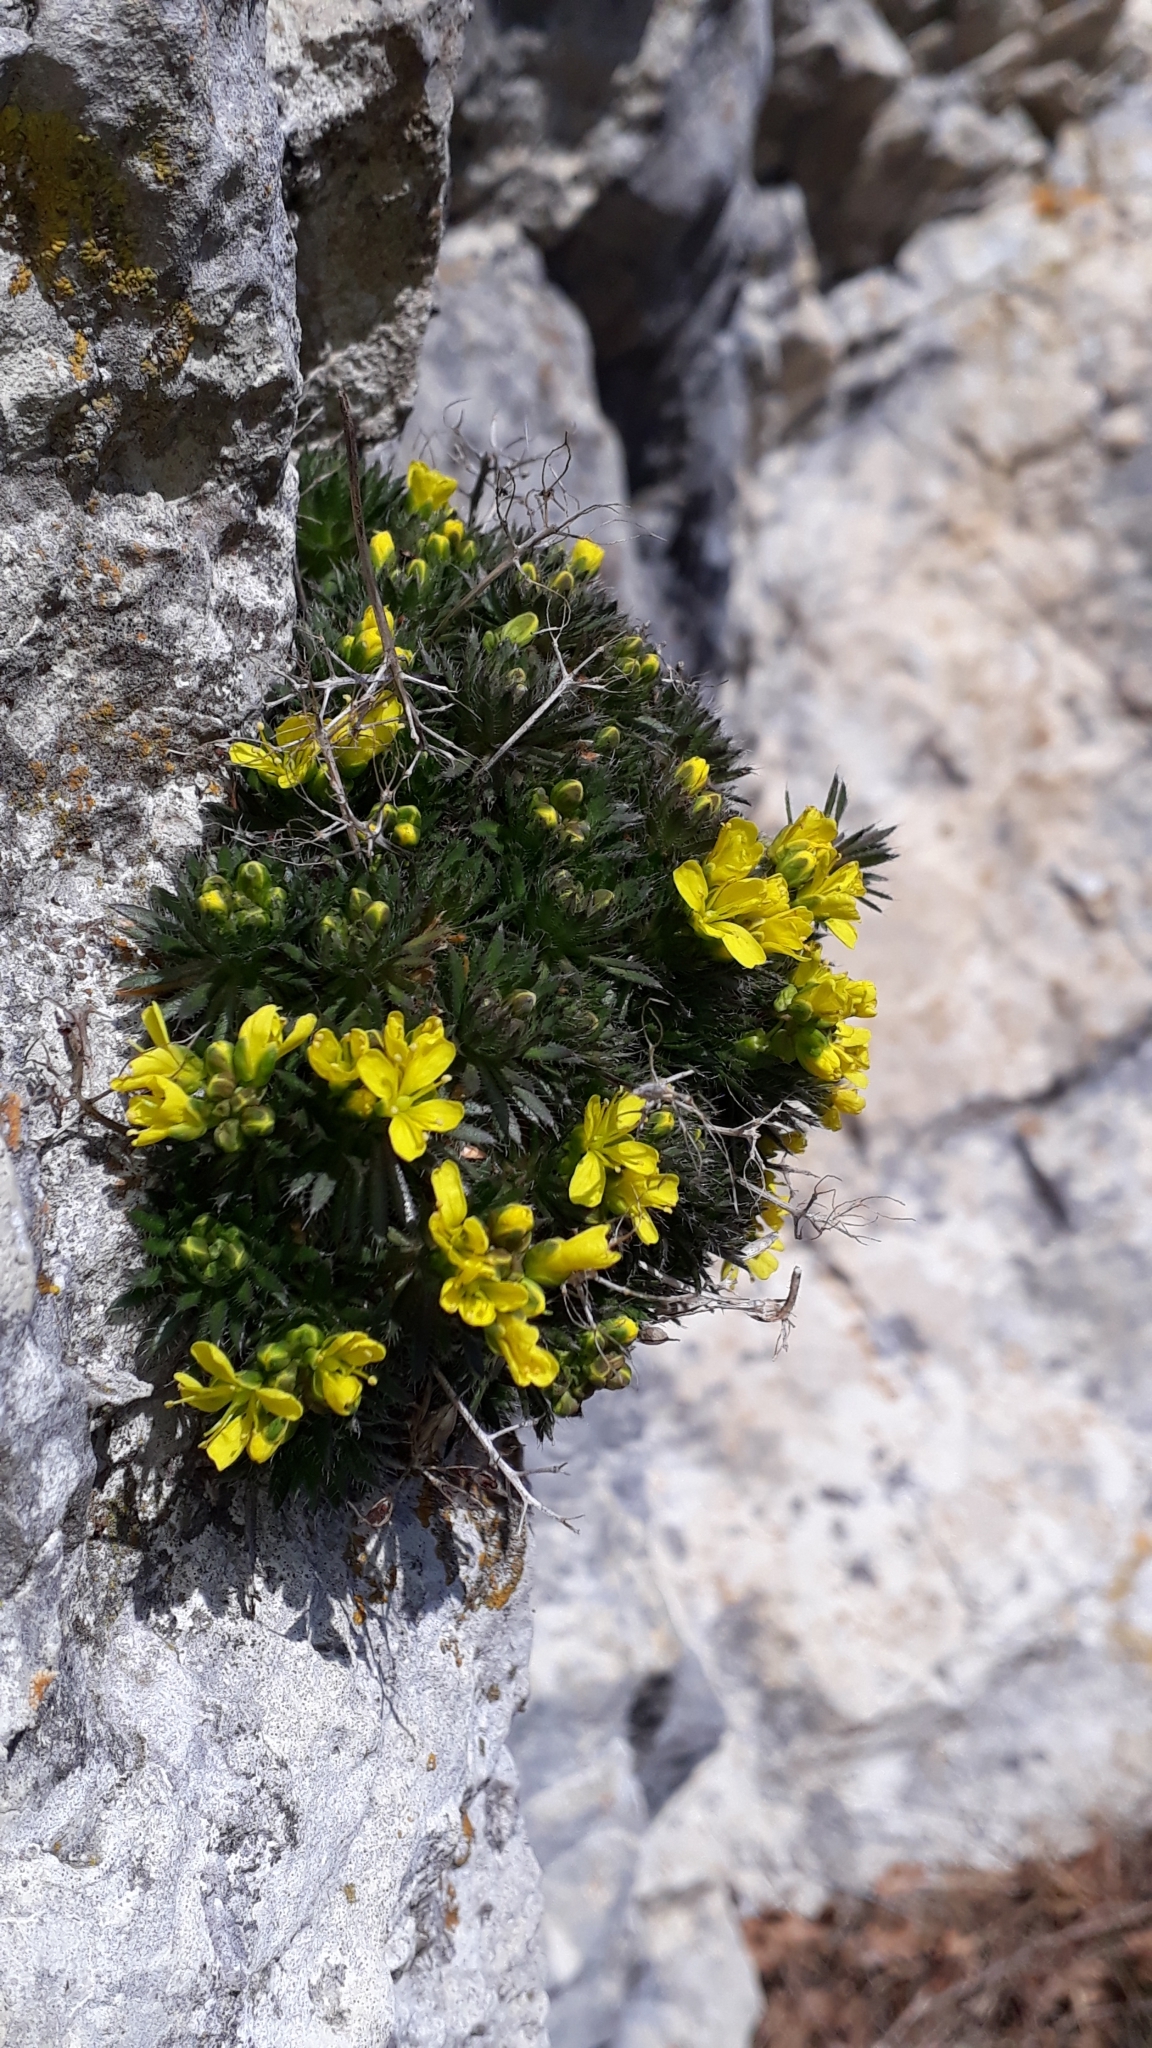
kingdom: Plantae
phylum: Tracheophyta
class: Magnoliopsida
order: Brassicales
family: Brassicaceae
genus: Draba
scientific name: Draba aizoides
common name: Yellow whitlowgrass
